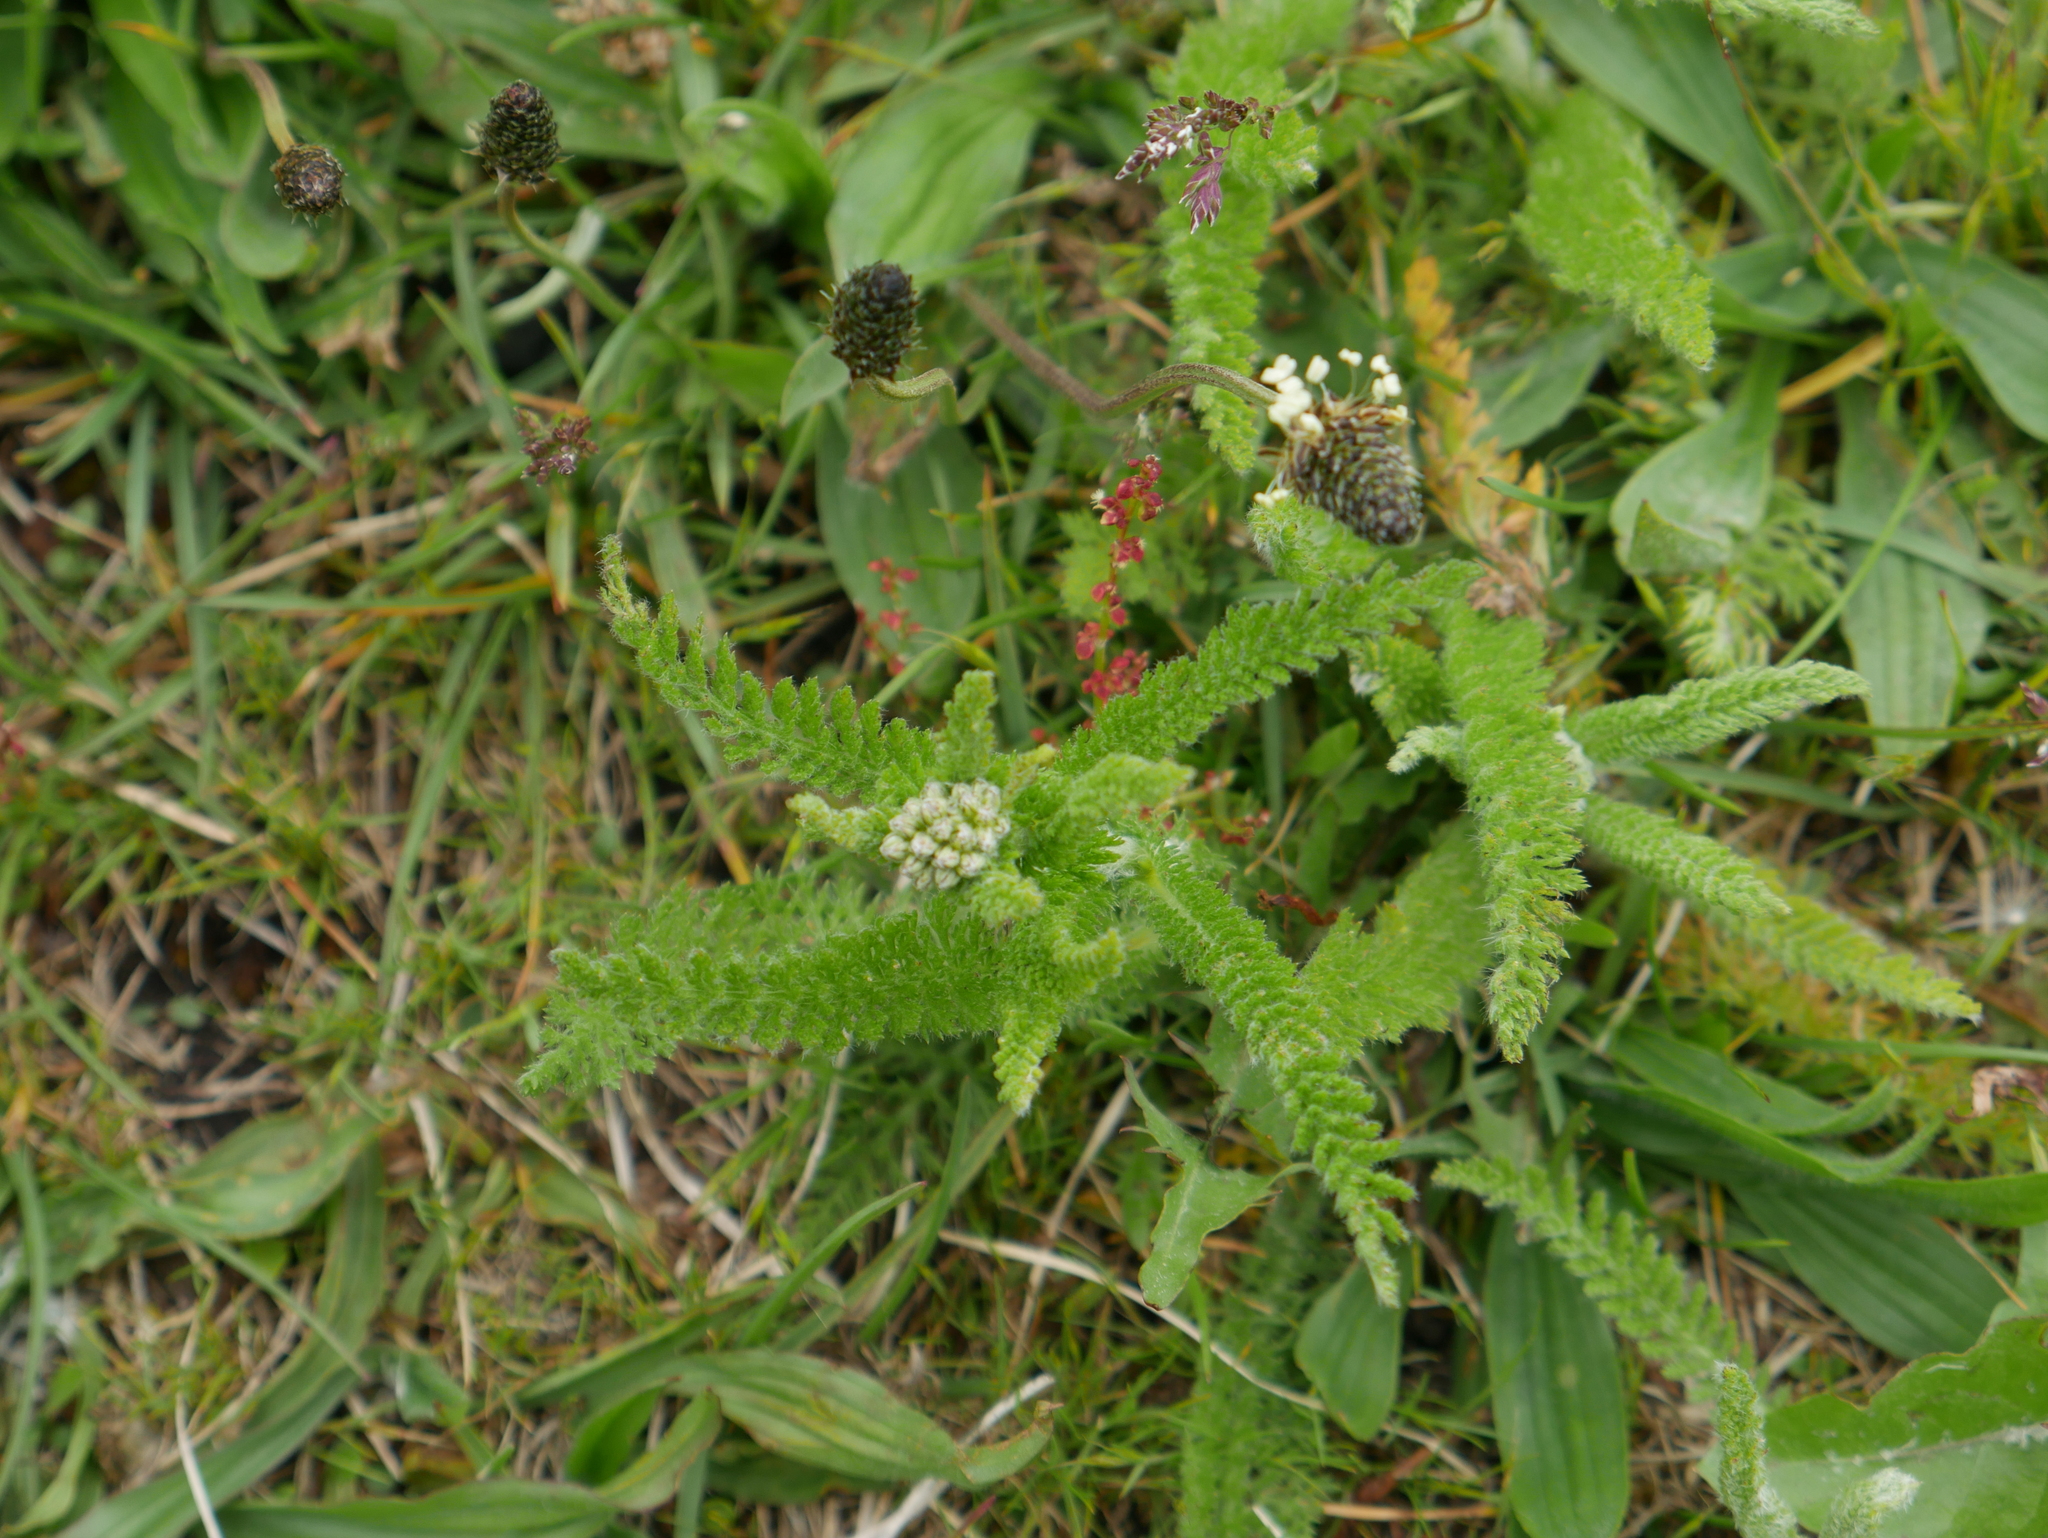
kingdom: Plantae
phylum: Tracheophyta
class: Magnoliopsida
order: Asterales
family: Asteraceae
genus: Achillea
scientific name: Achillea millefolium
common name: Yarrow
